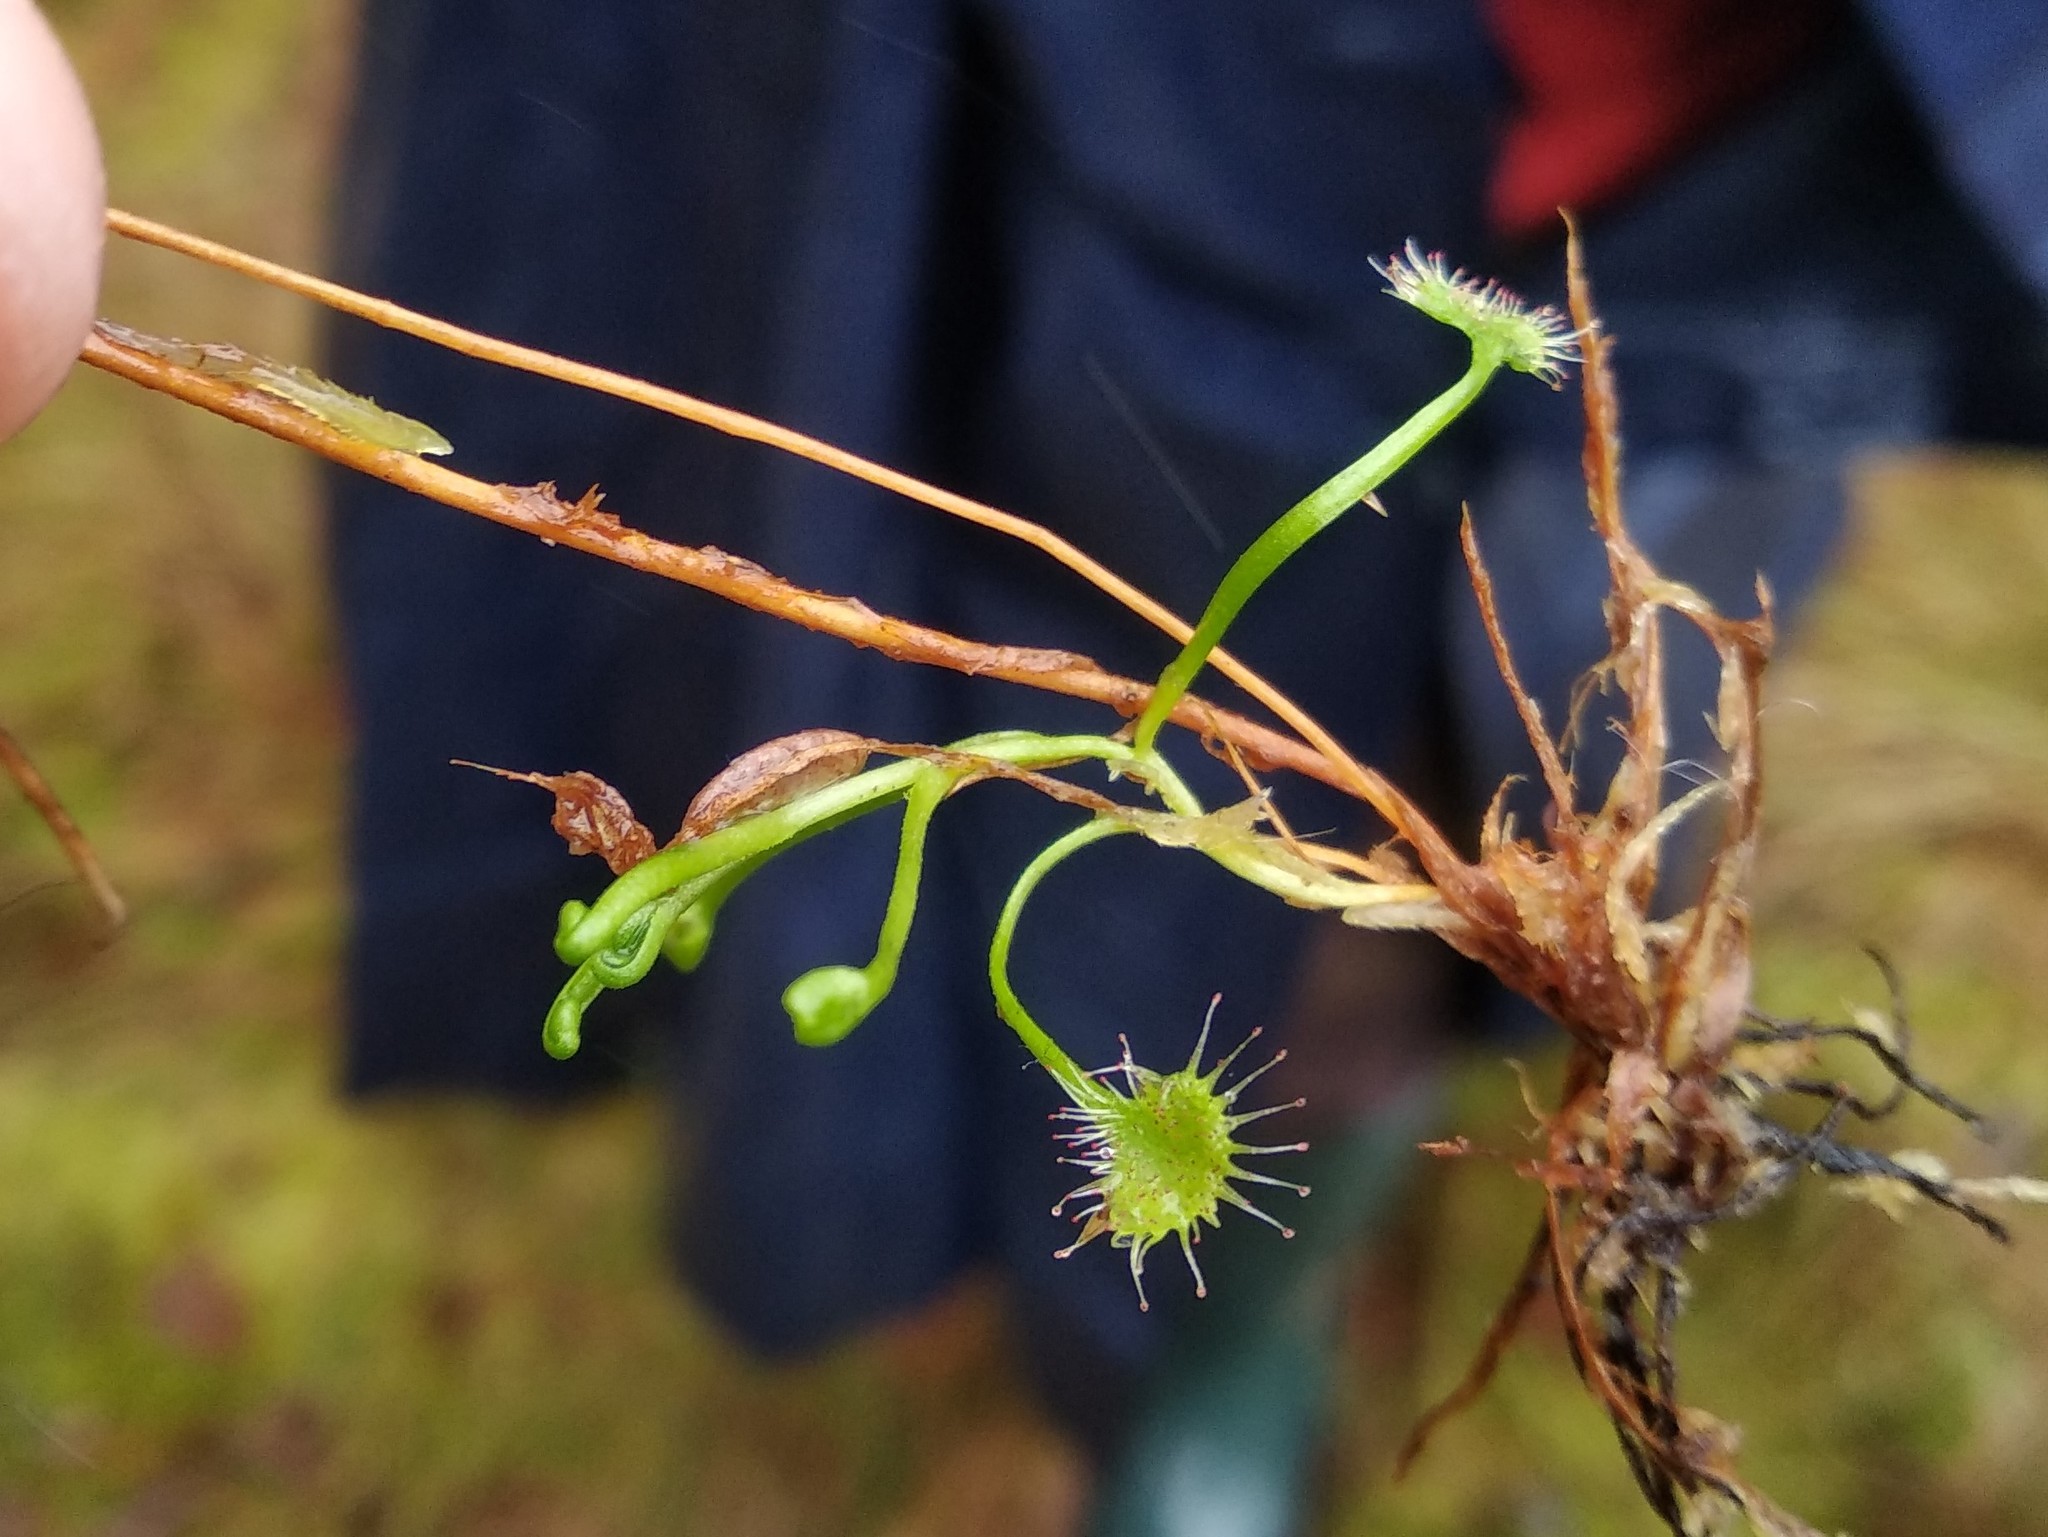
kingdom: Plantae
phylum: Tracheophyta
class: Magnoliopsida
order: Caryophyllales
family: Droseraceae
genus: Drosera
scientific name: Drosera rotundifolia
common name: Round-leaved sundew
